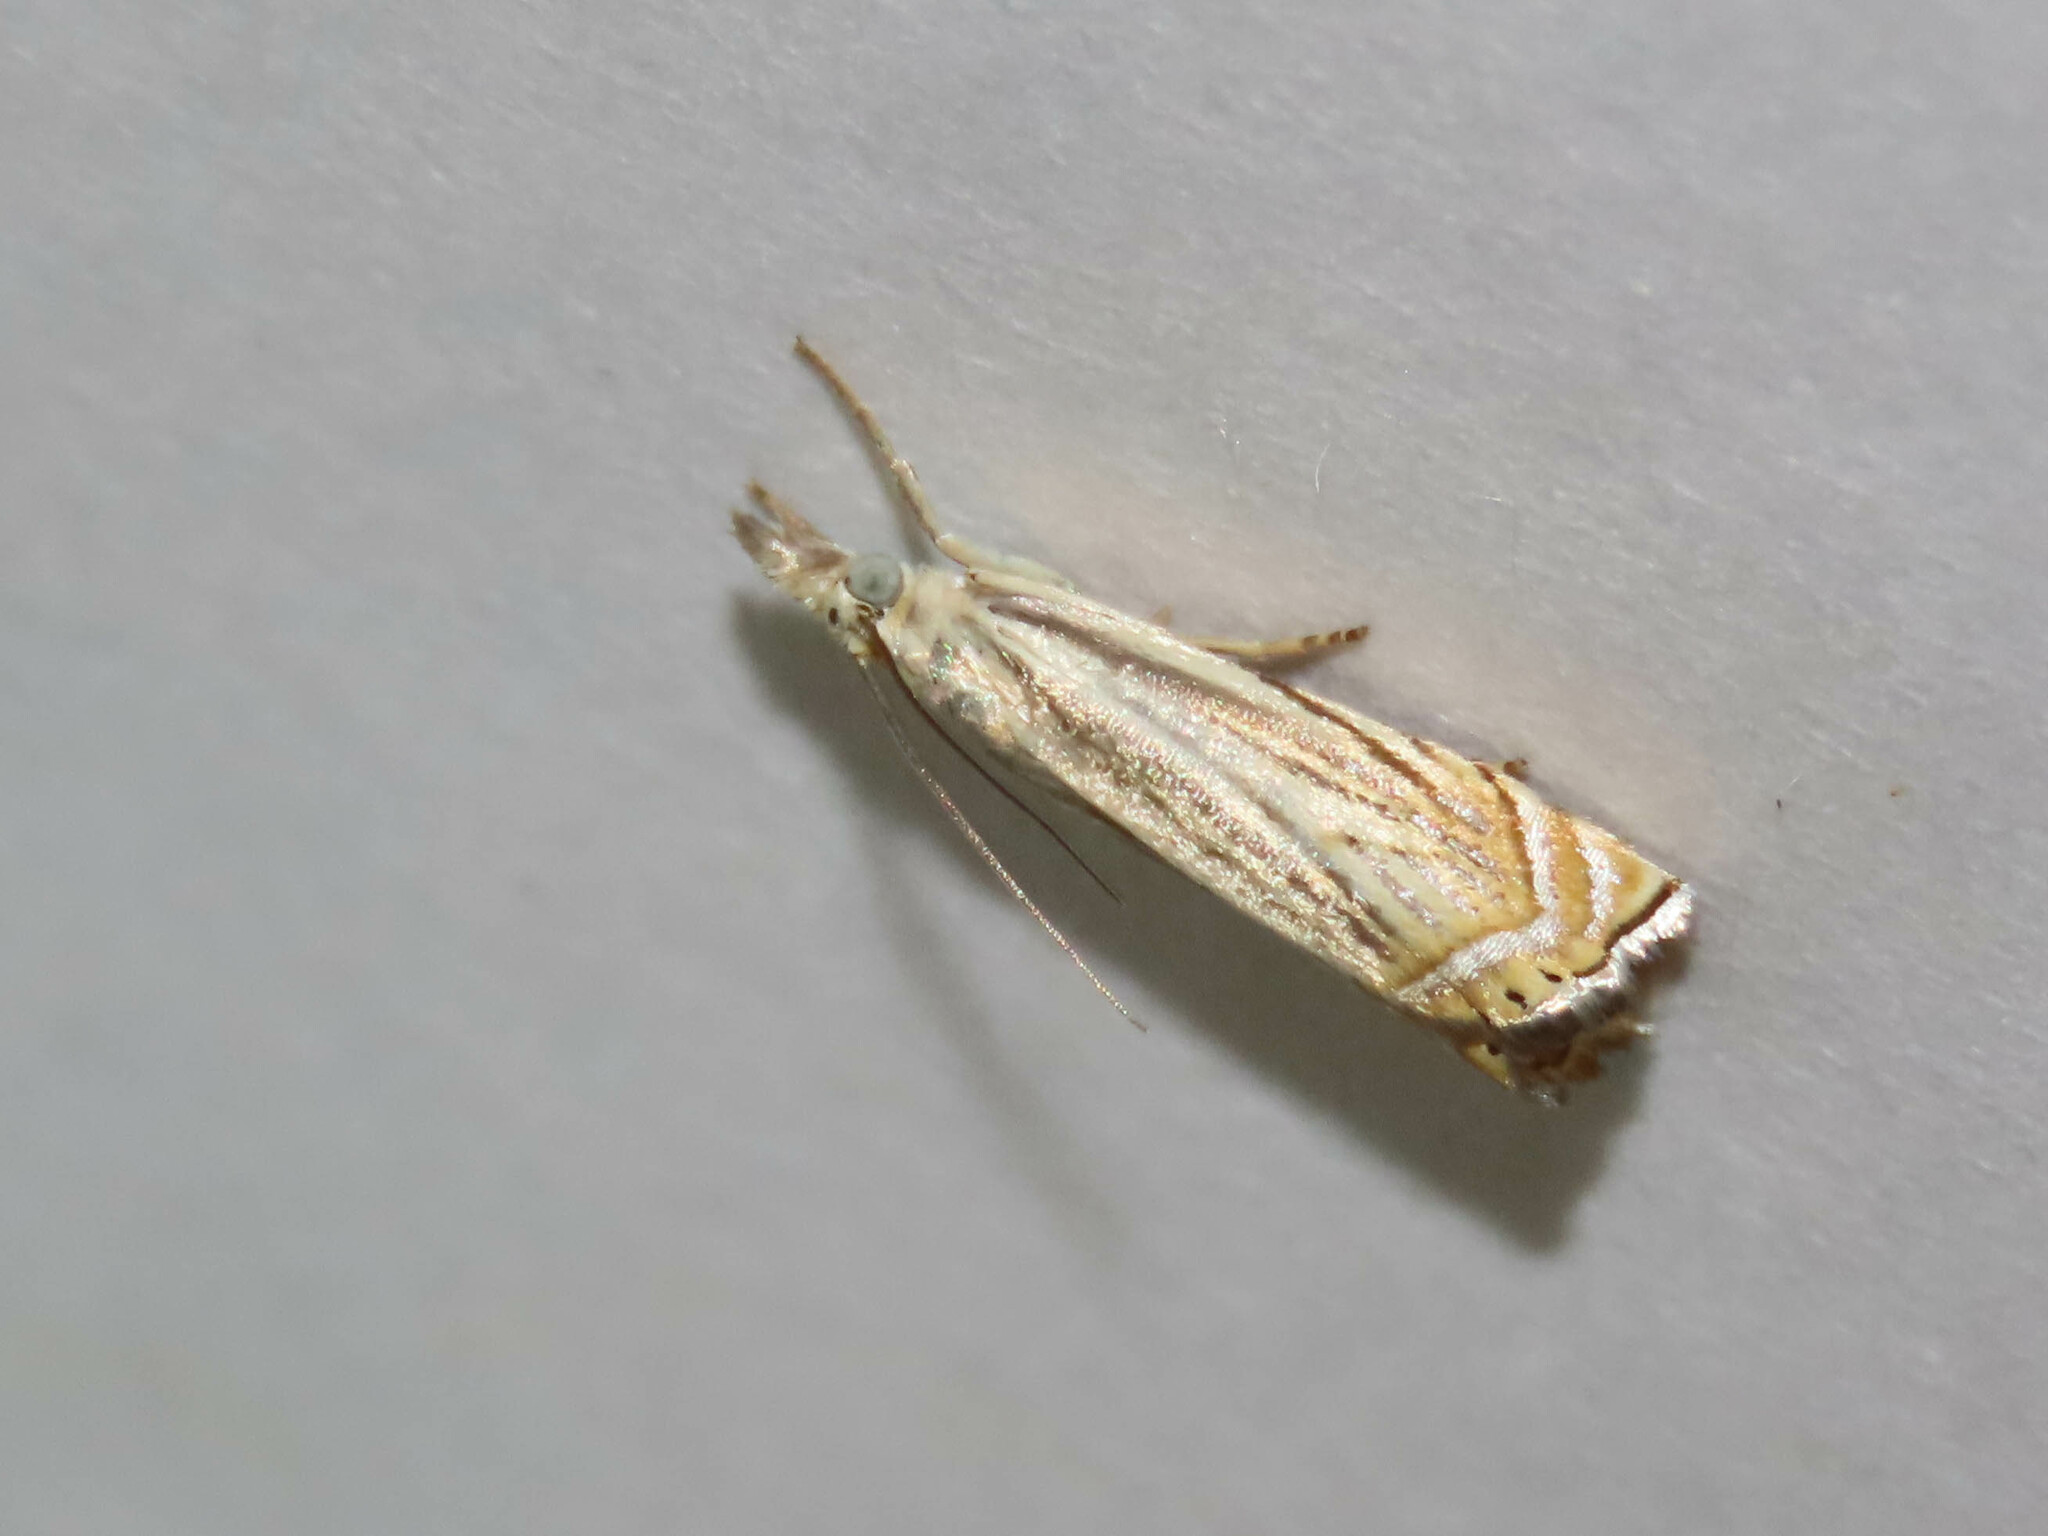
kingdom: Animalia
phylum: Arthropoda
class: Insecta
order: Lepidoptera
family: Crambidae
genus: Chrysoteuchia
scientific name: Chrysoteuchia topiarius
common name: Topiary grass-veneer
